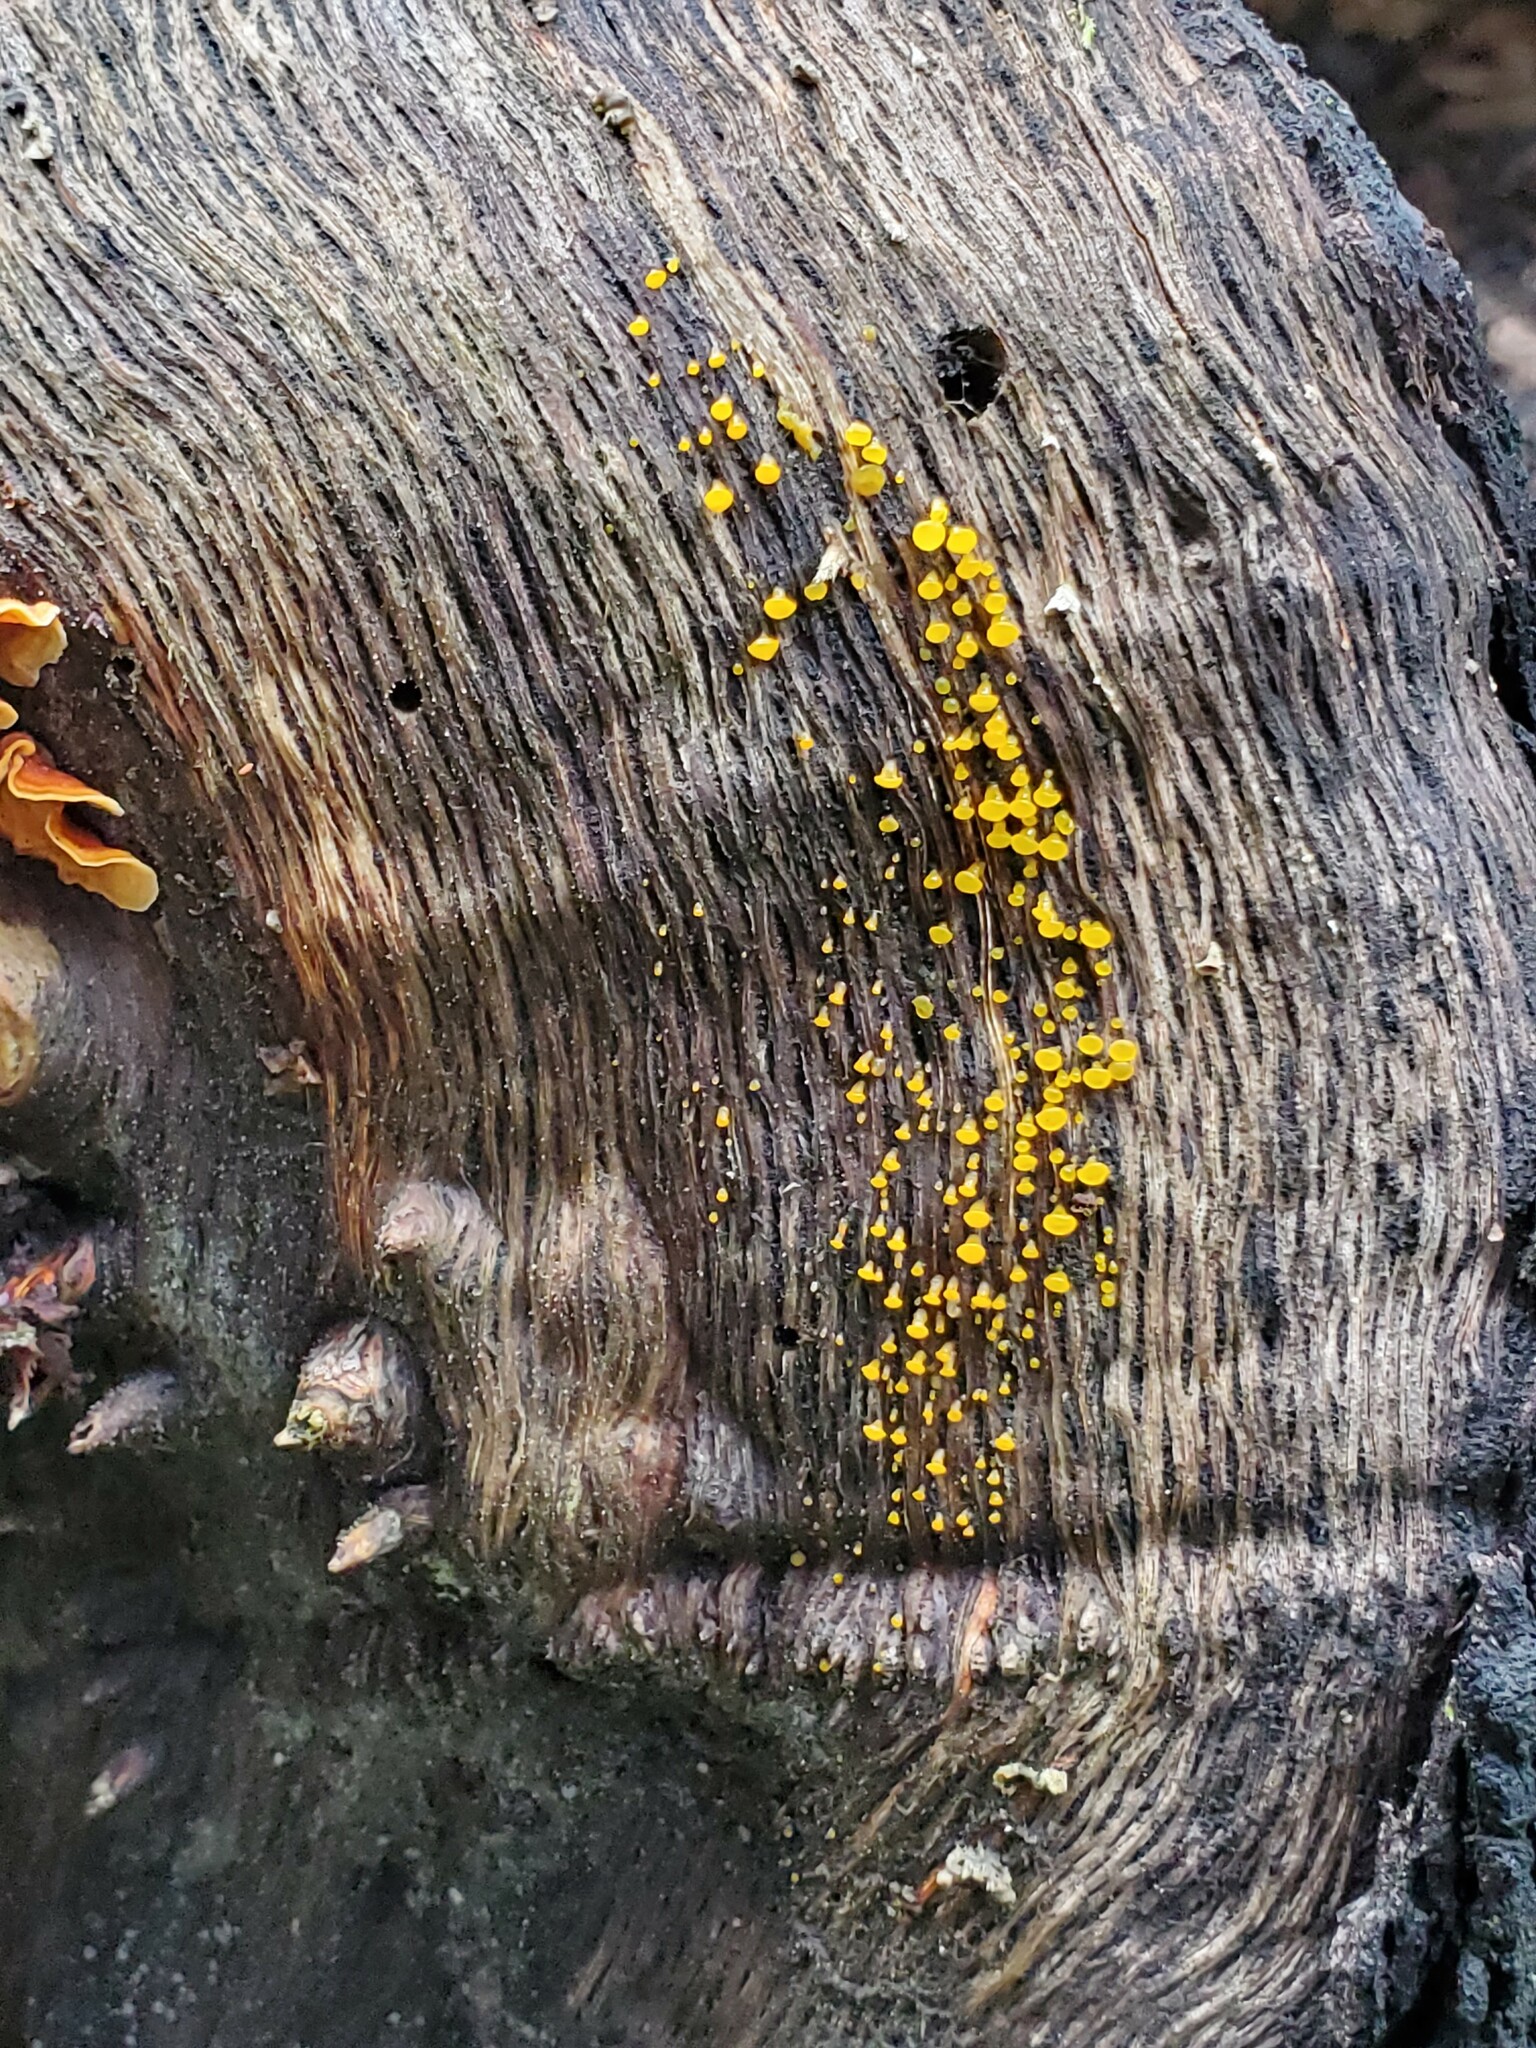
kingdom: Fungi
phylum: Basidiomycota
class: Dacrymycetes
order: Dacrymycetales
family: Dacrymycetaceae
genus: Dacrymyces
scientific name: Dacrymyces capitatus
